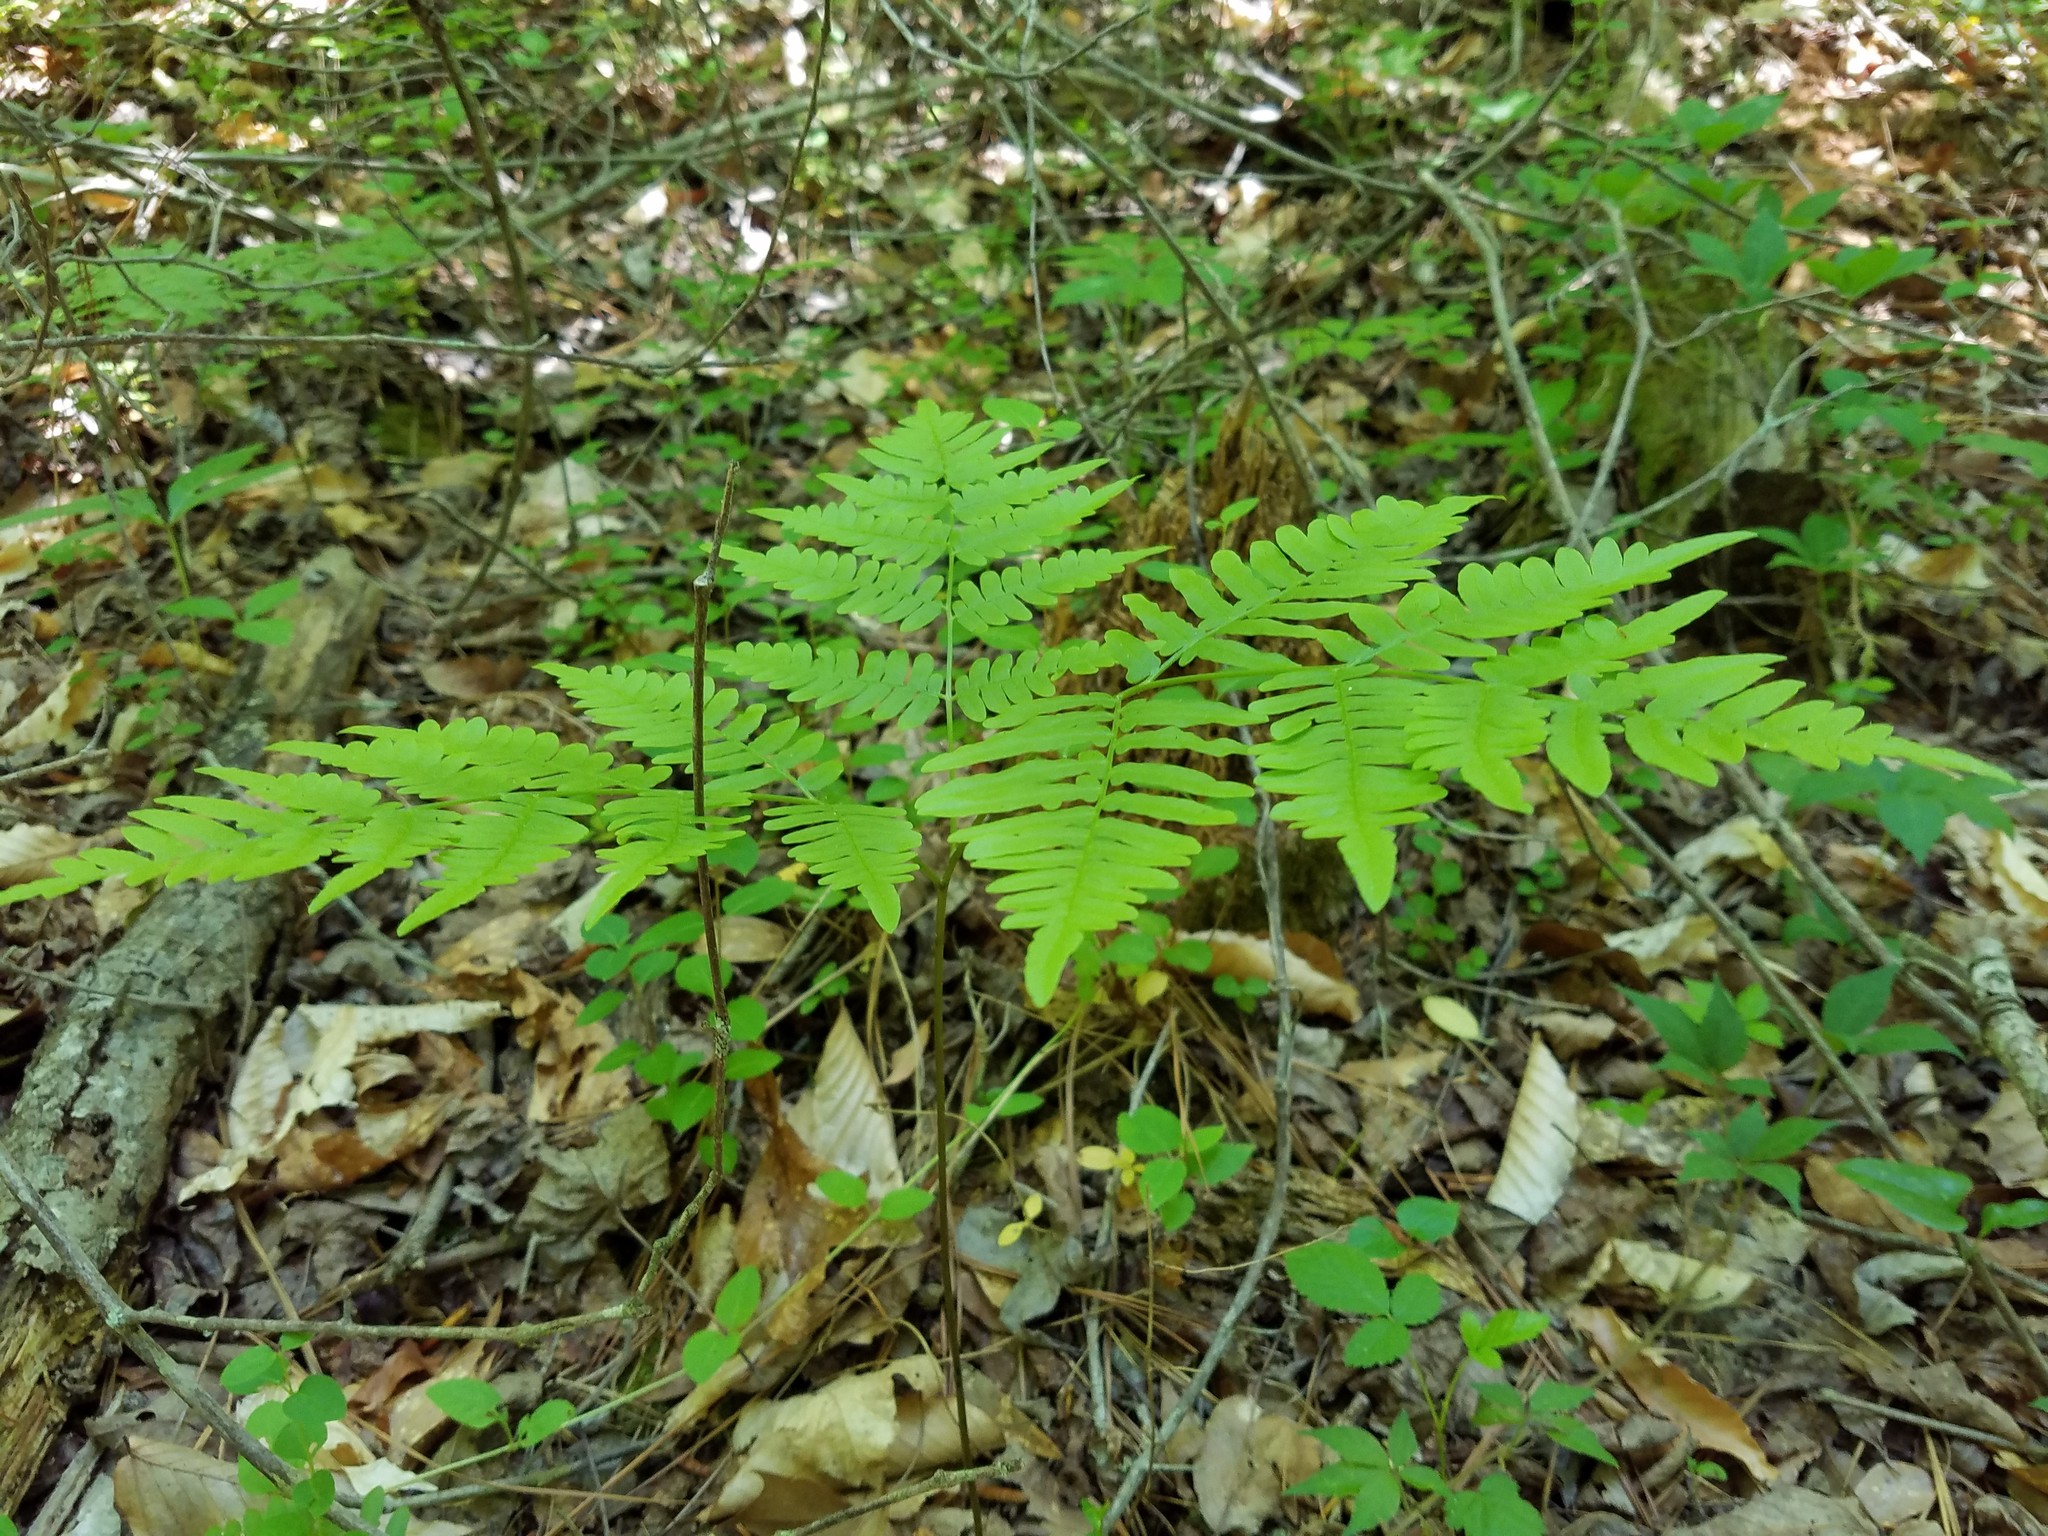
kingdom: Plantae
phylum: Tracheophyta
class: Polypodiopsida
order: Polypodiales
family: Dennstaedtiaceae
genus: Pteridium
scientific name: Pteridium aquilinum
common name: Bracken
